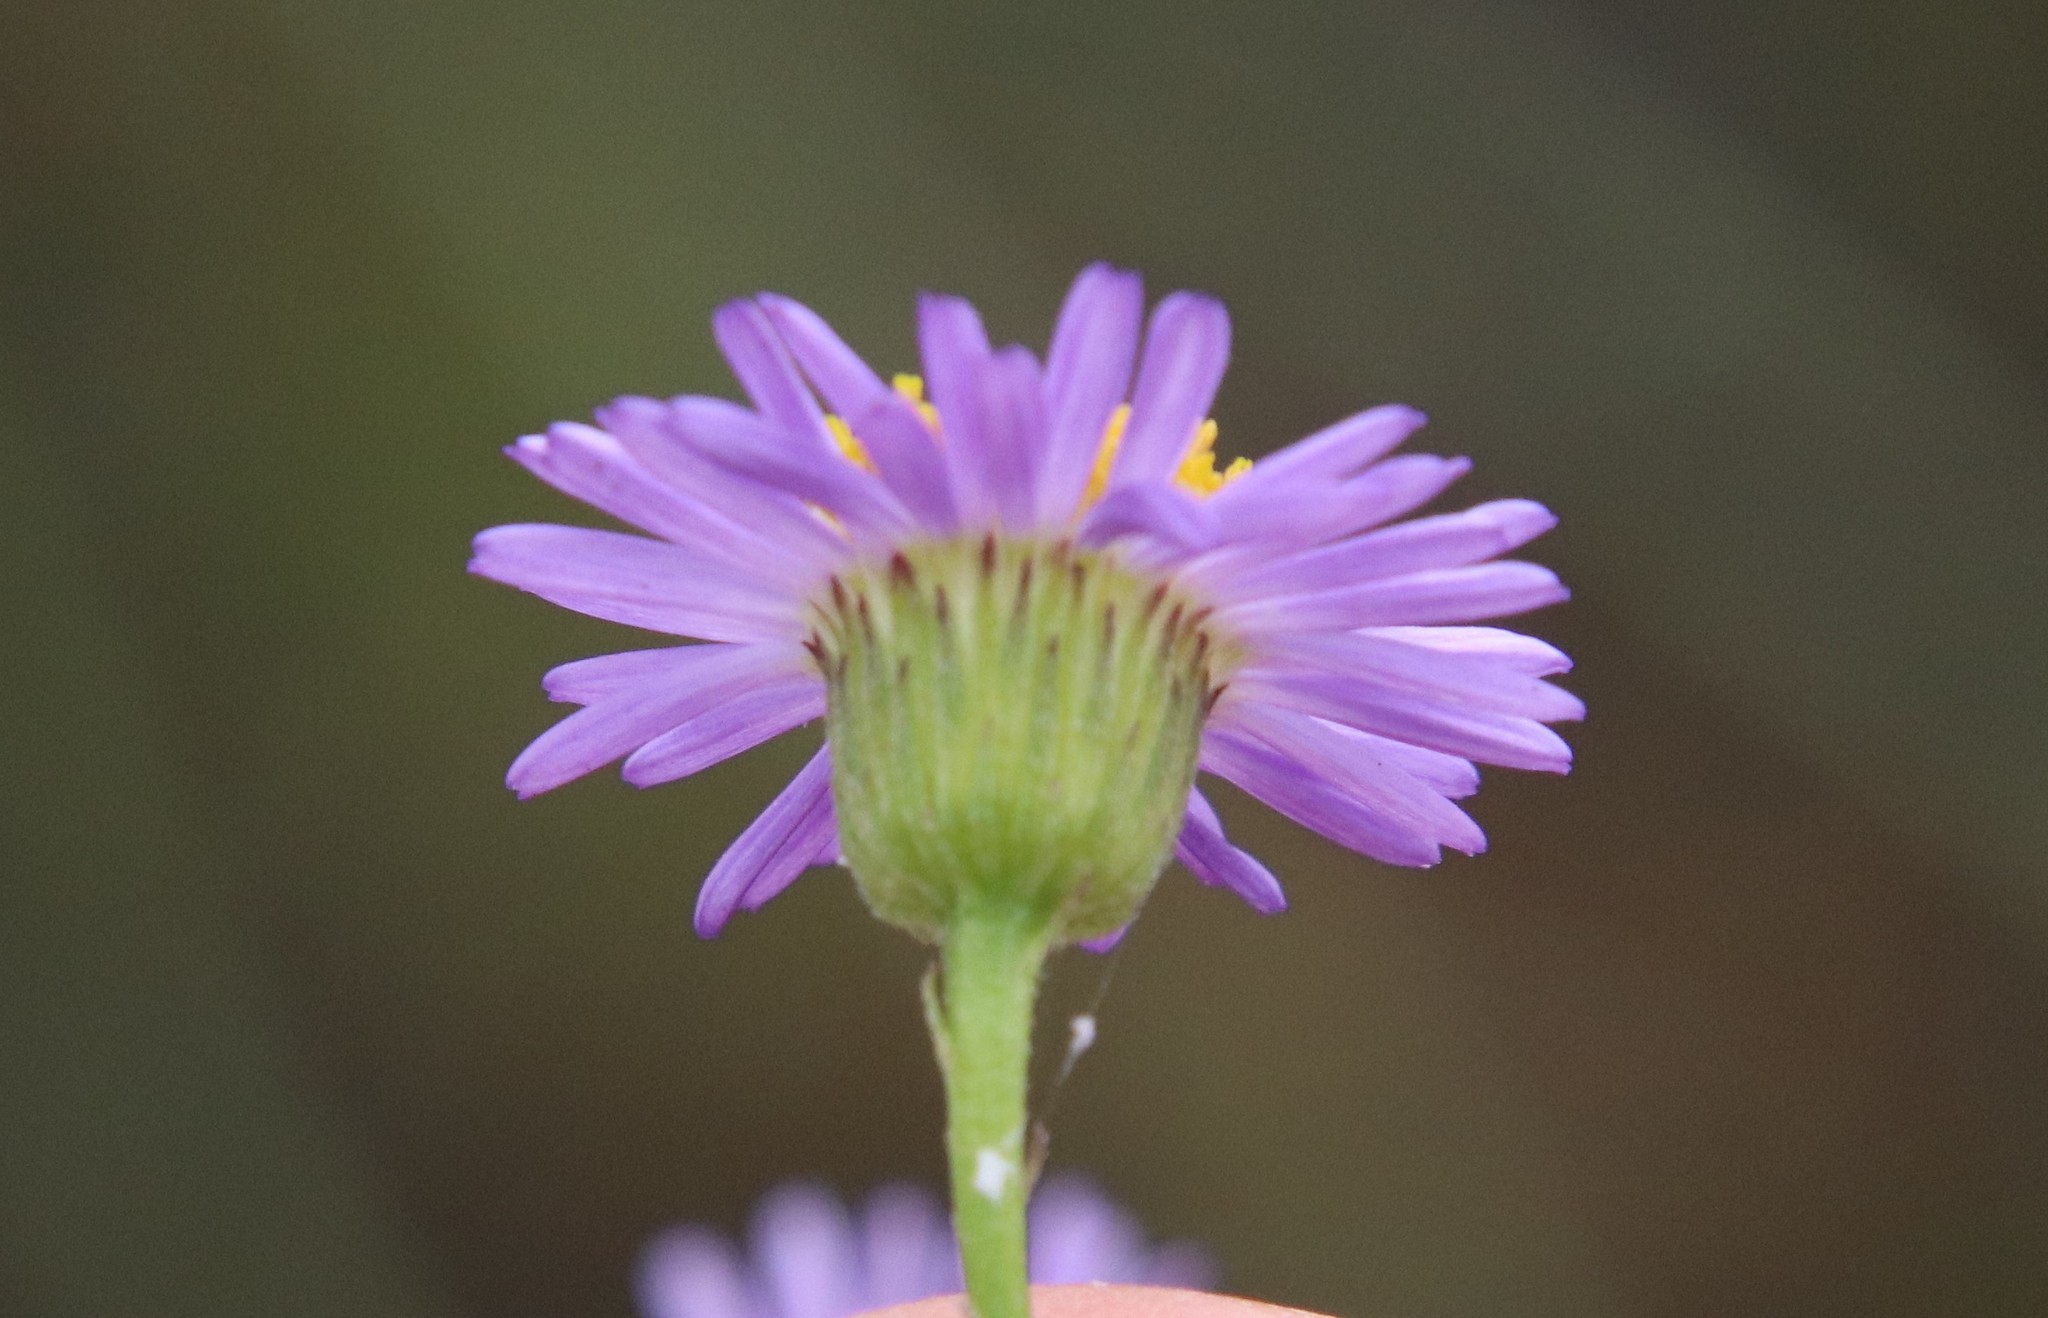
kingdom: Plantae
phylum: Tracheophyta
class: Magnoliopsida
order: Asterales
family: Asteraceae
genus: Erigeron
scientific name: Erigeron foliosus
